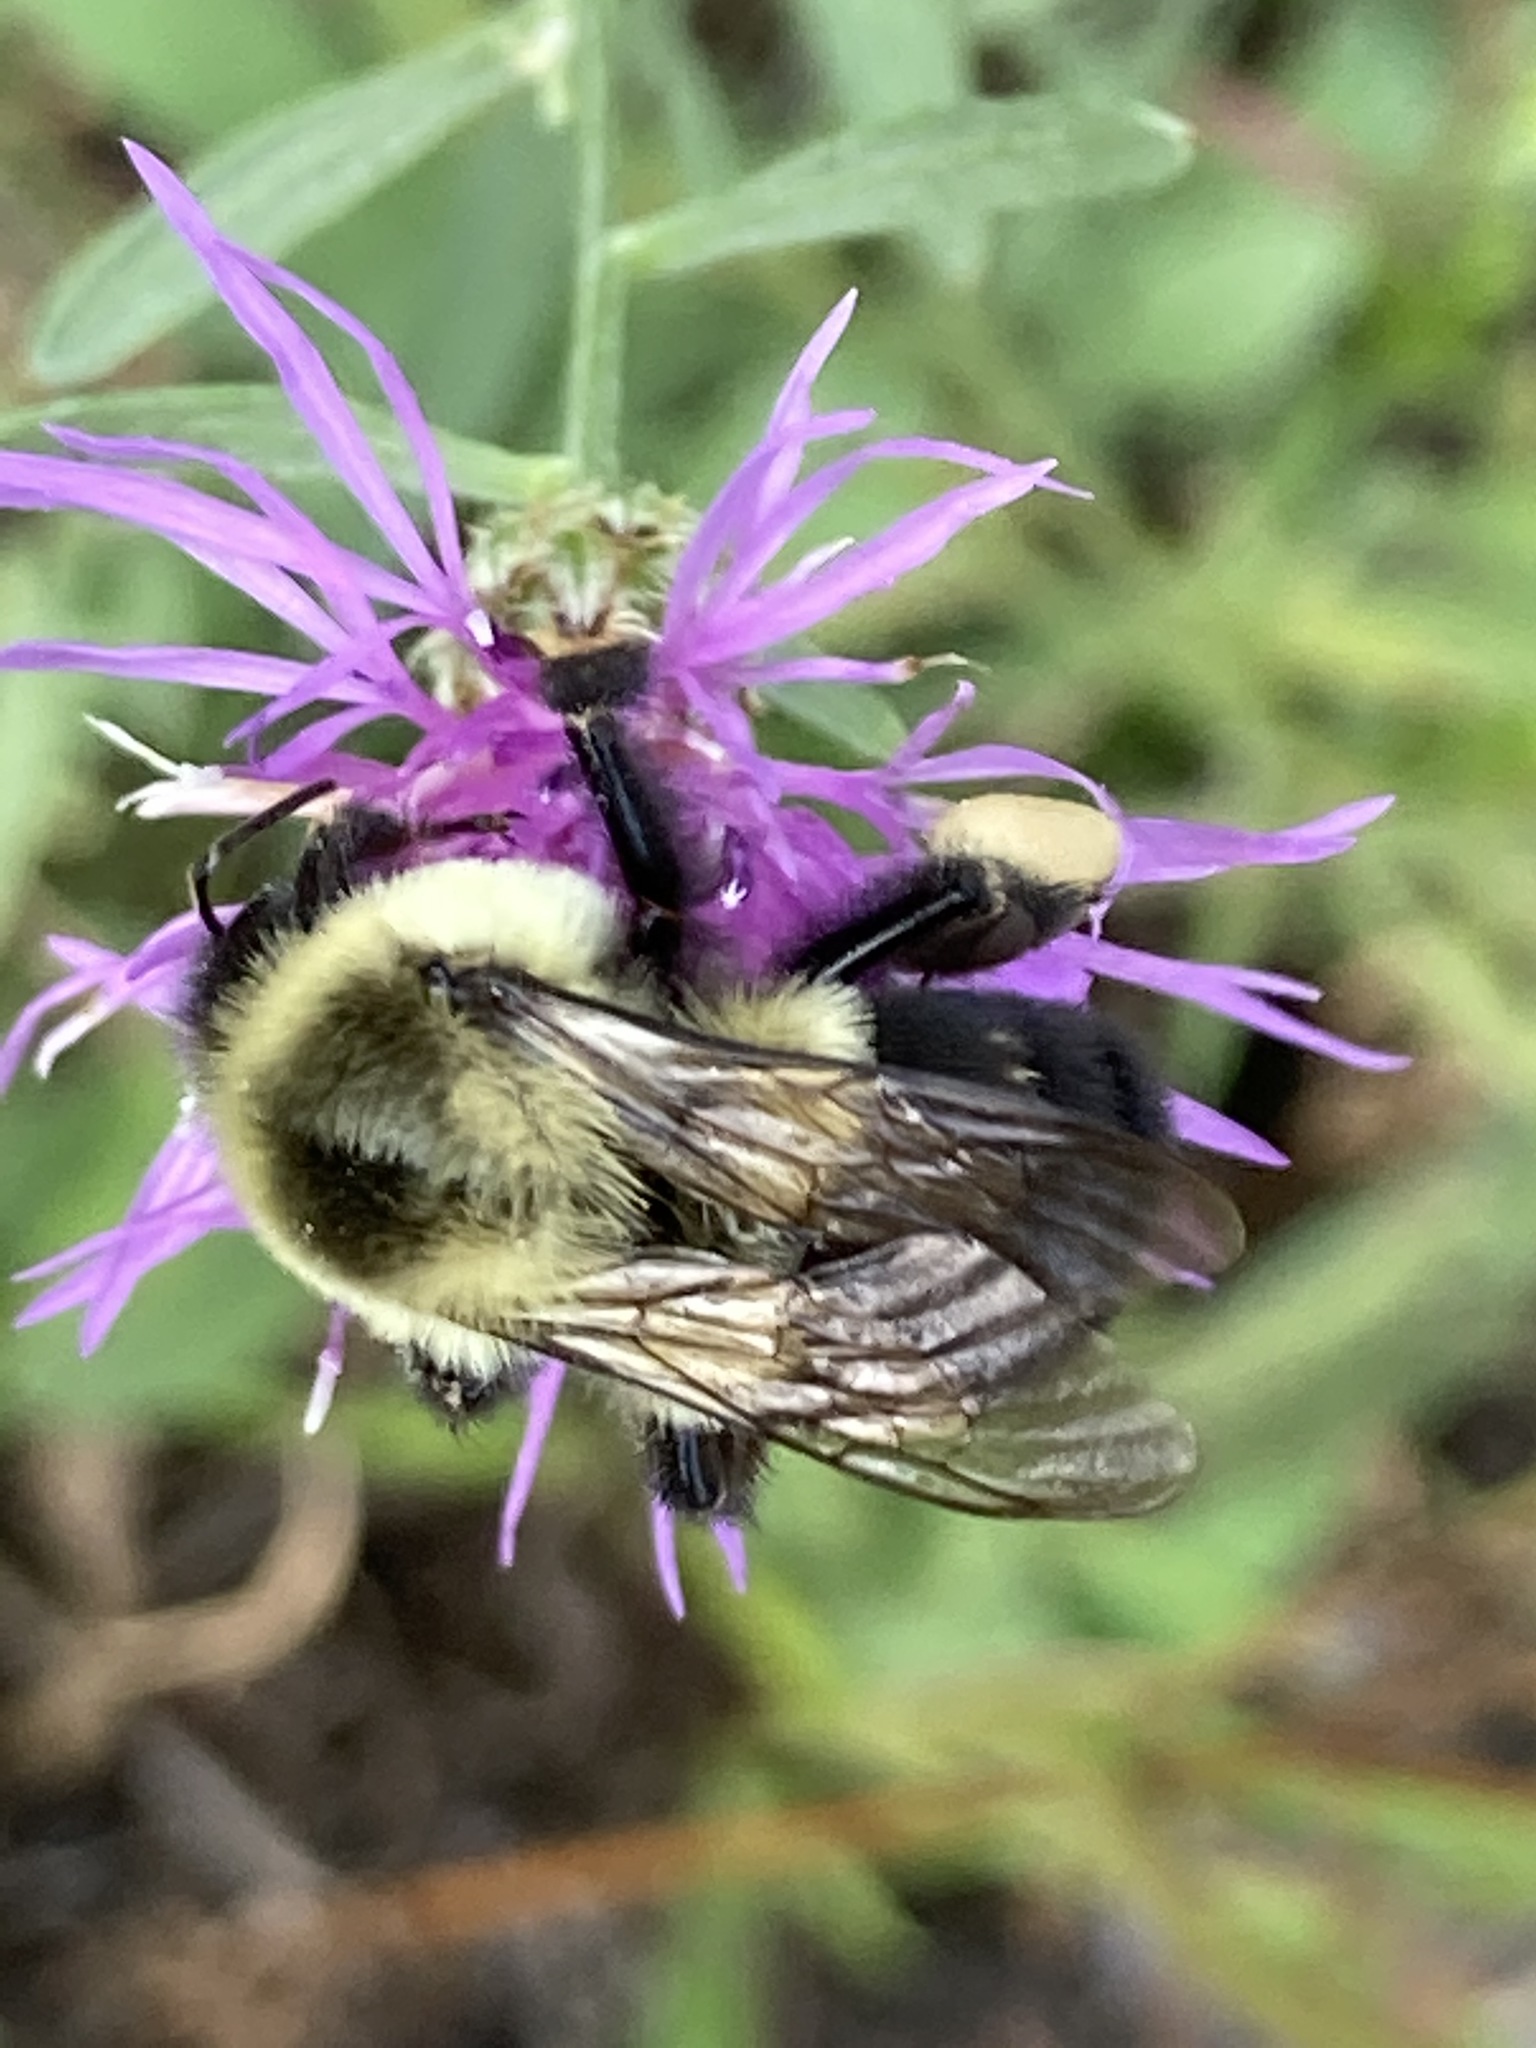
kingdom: Animalia
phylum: Arthropoda
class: Insecta
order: Hymenoptera
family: Apidae
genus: Bombus
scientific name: Bombus impatiens
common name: Common eastern bumble bee
